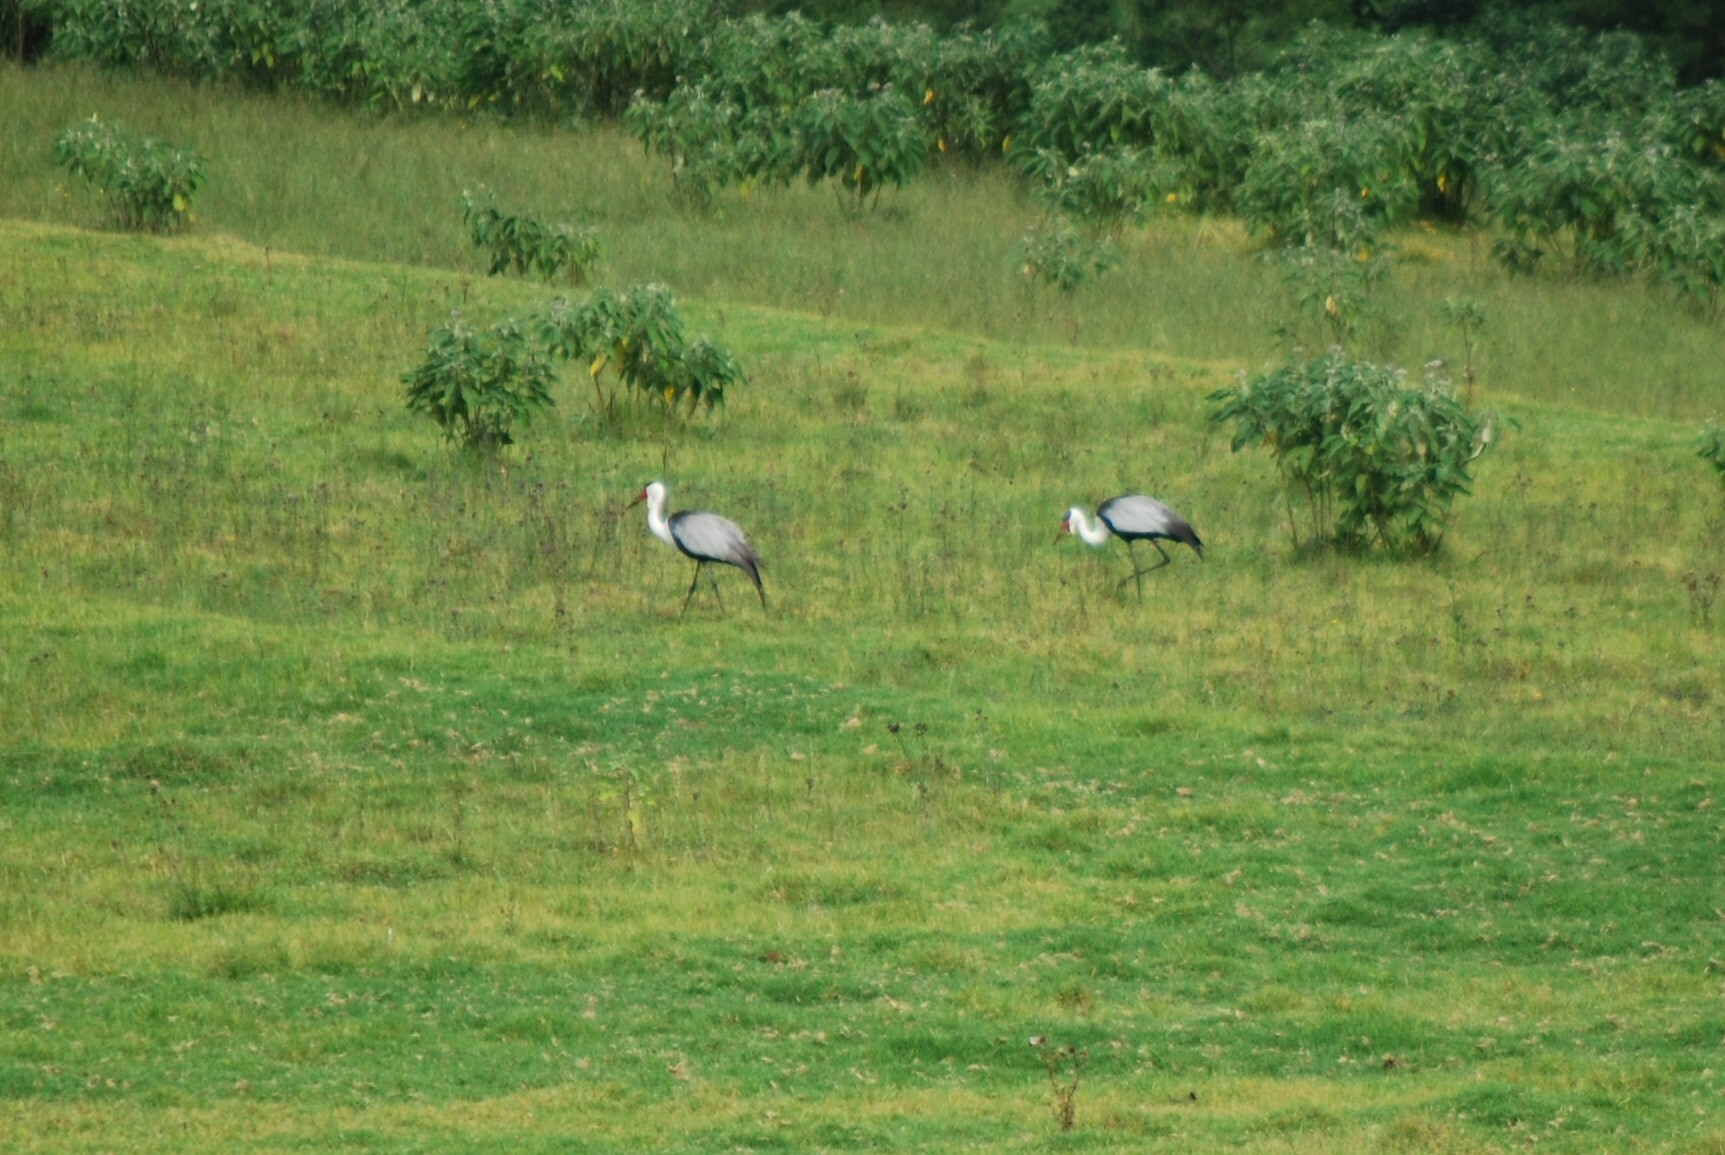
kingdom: Animalia
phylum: Chordata
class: Aves
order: Gruiformes
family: Gruidae
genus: Bugeranus
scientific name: Bugeranus carunculatus
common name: Wattled crane
